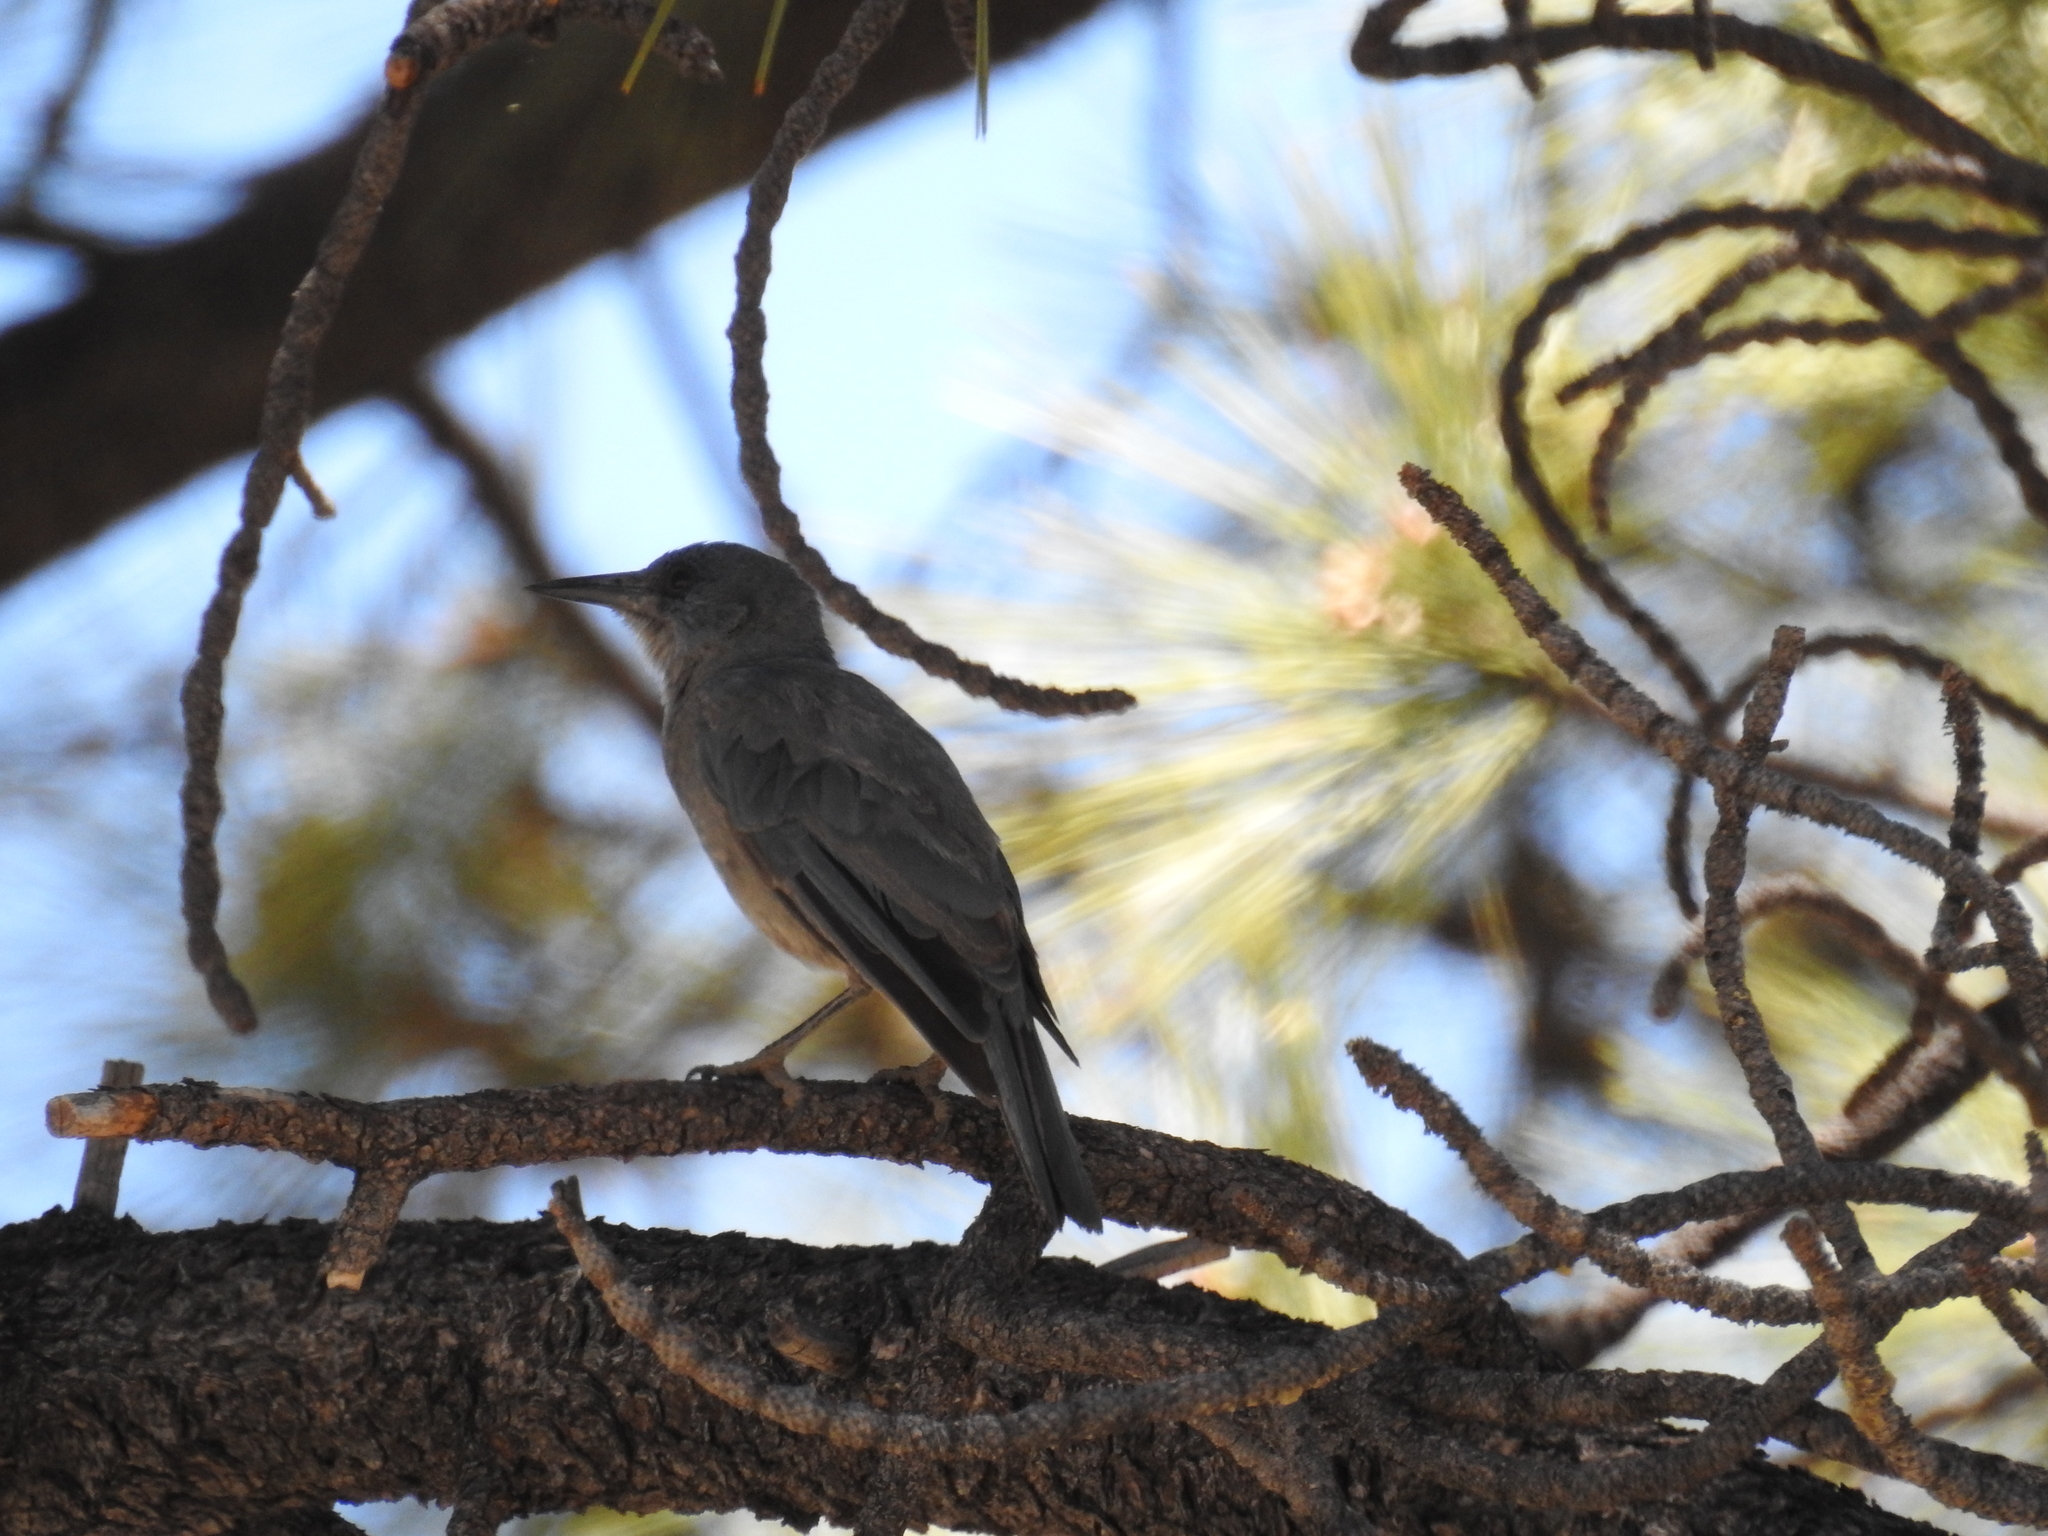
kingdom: Animalia
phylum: Chordata
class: Aves
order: Passeriformes
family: Corvidae
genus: Gymnorhinus
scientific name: Gymnorhinus cyanocephalus
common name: Pinyon jay
